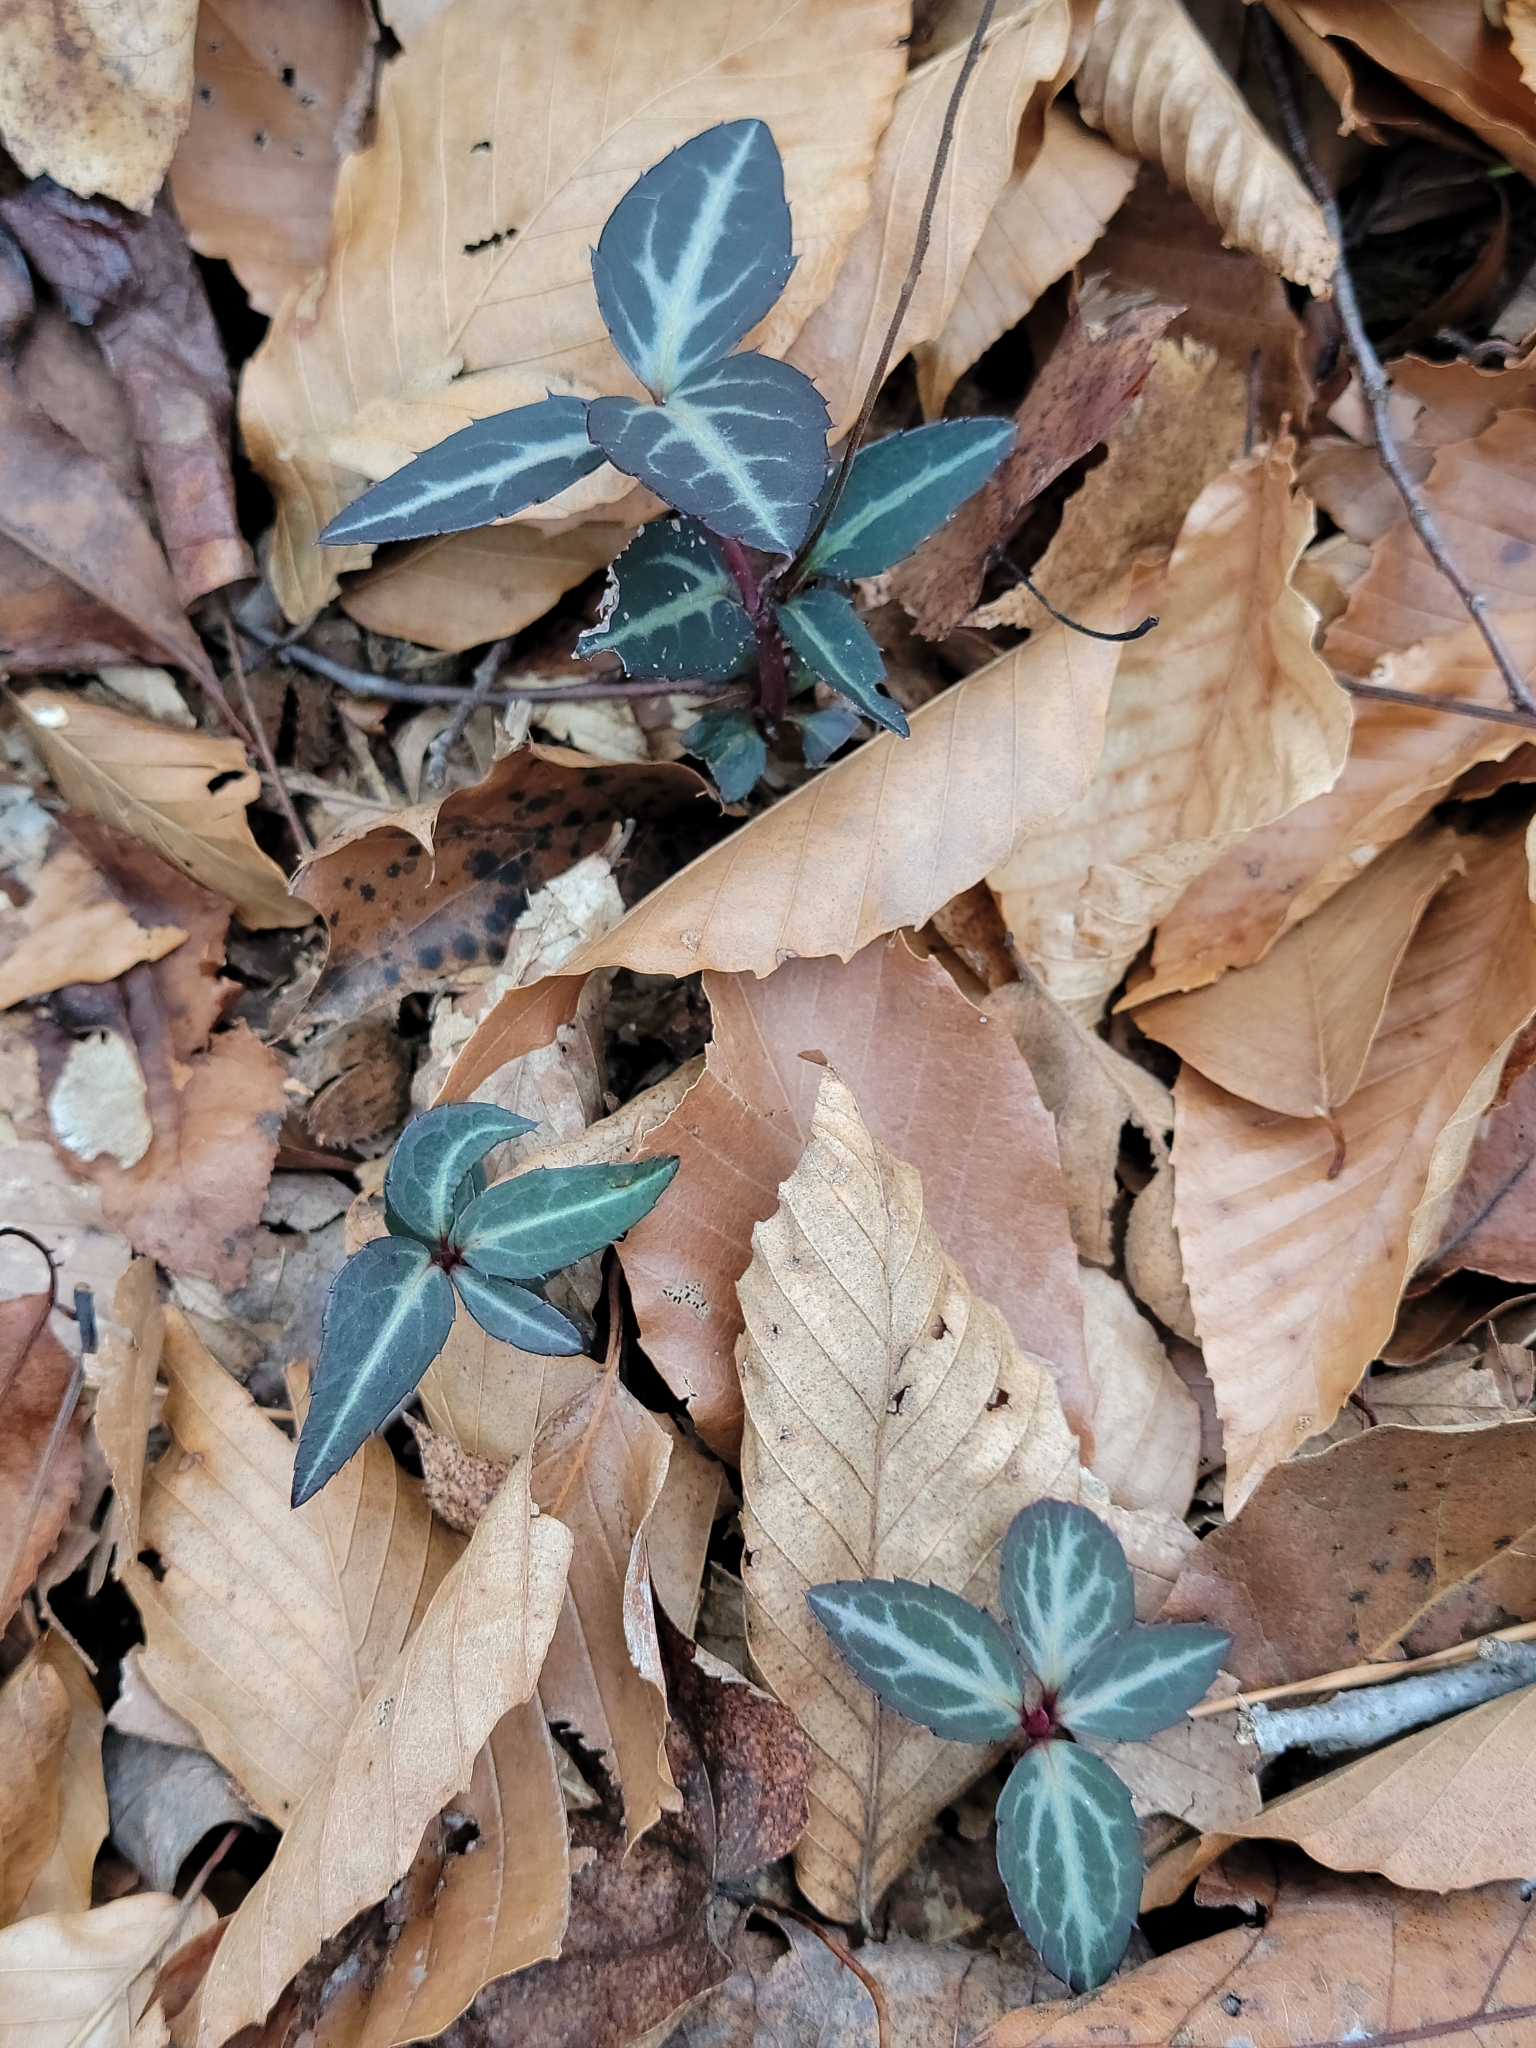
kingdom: Plantae
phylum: Tracheophyta
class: Magnoliopsida
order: Ericales
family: Ericaceae
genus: Chimaphila
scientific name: Chimaphila maculata
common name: Spotted pipsissewa
